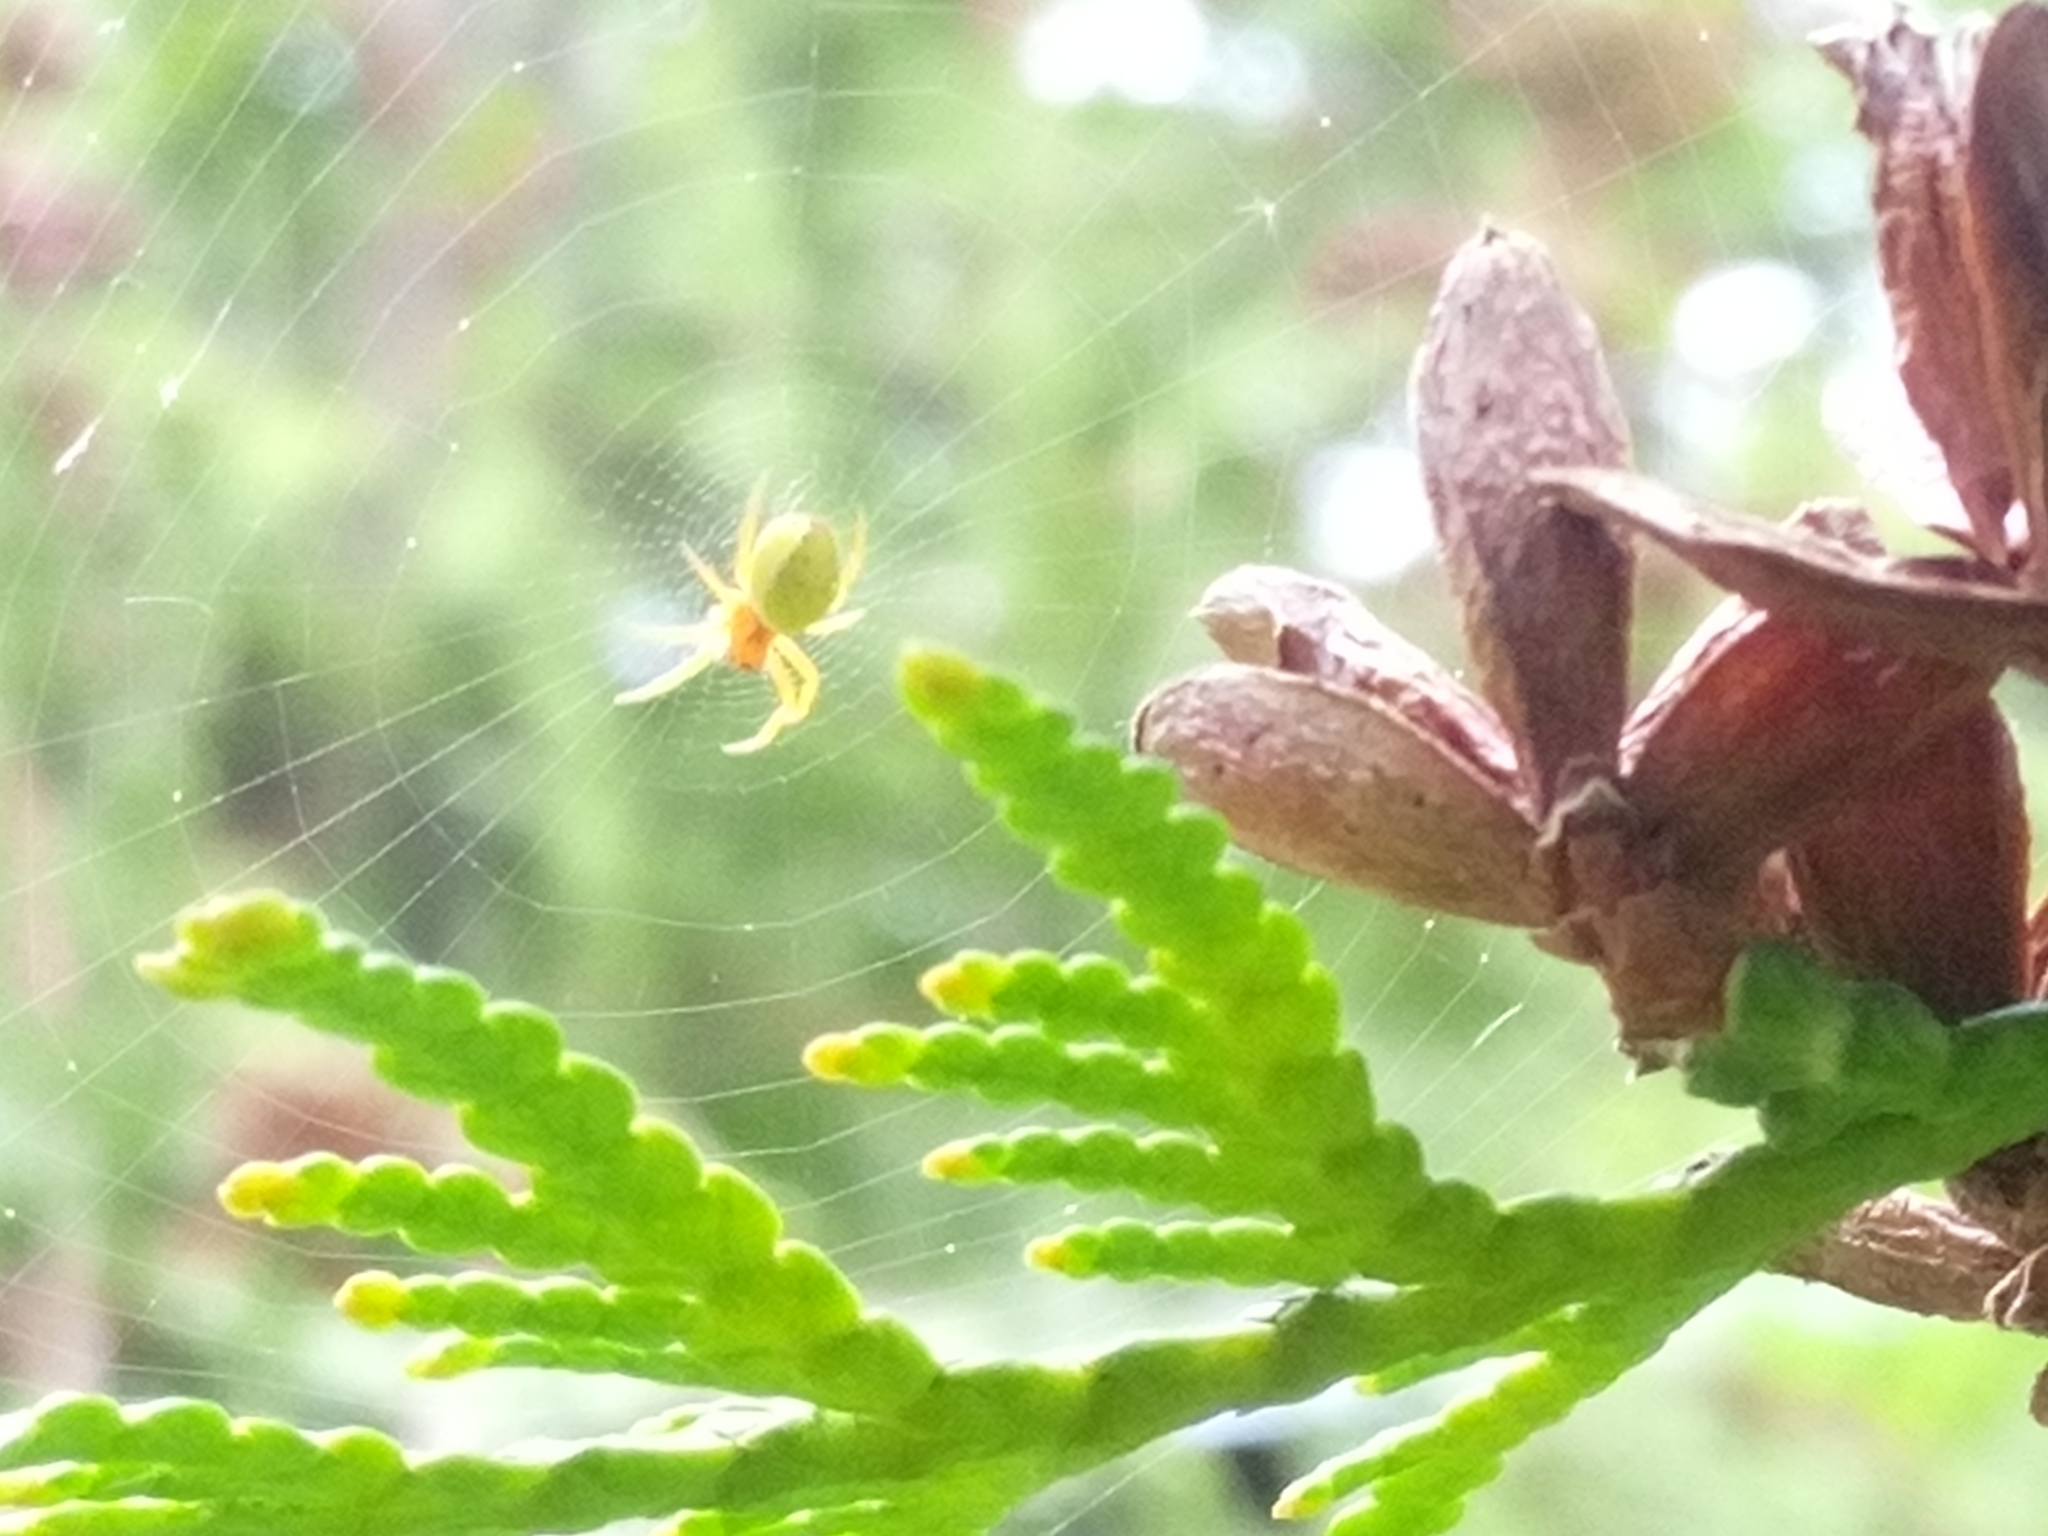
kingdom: Animalia
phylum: Arthropoda
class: Arachnida
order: Araneae
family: Araneidae
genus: Araniella
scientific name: Araniella
